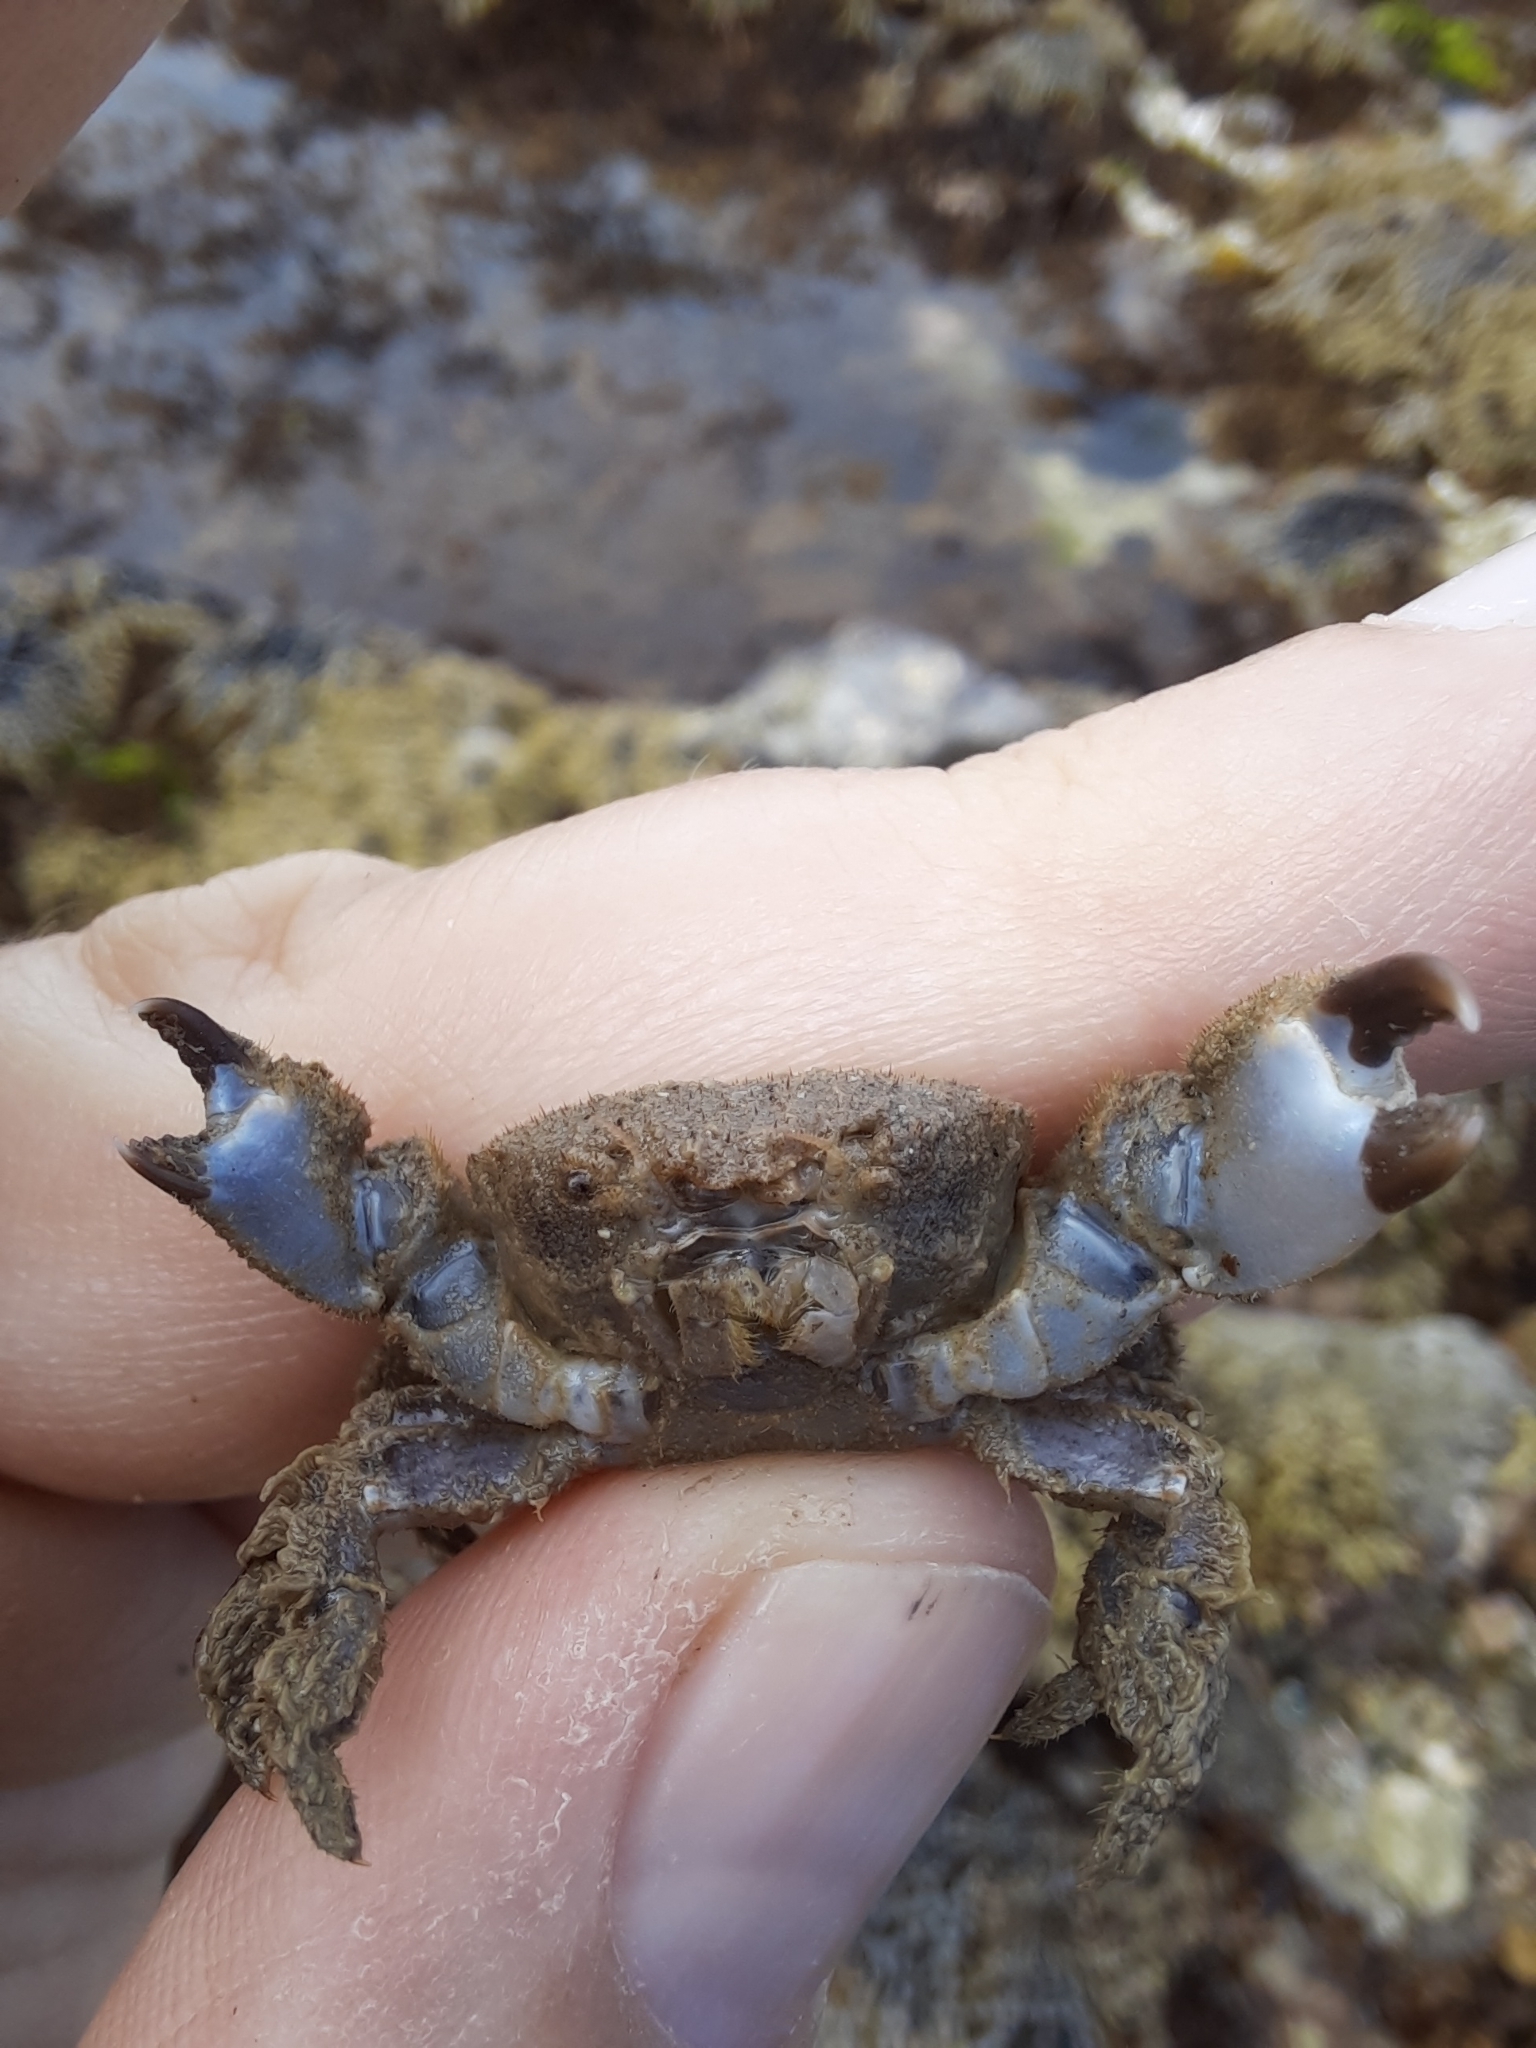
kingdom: Animalia
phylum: Arthropoda
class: Malacostraca
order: Decapoda
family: Pilumnidae
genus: Pilumnus
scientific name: Pilumnus lumpinus
